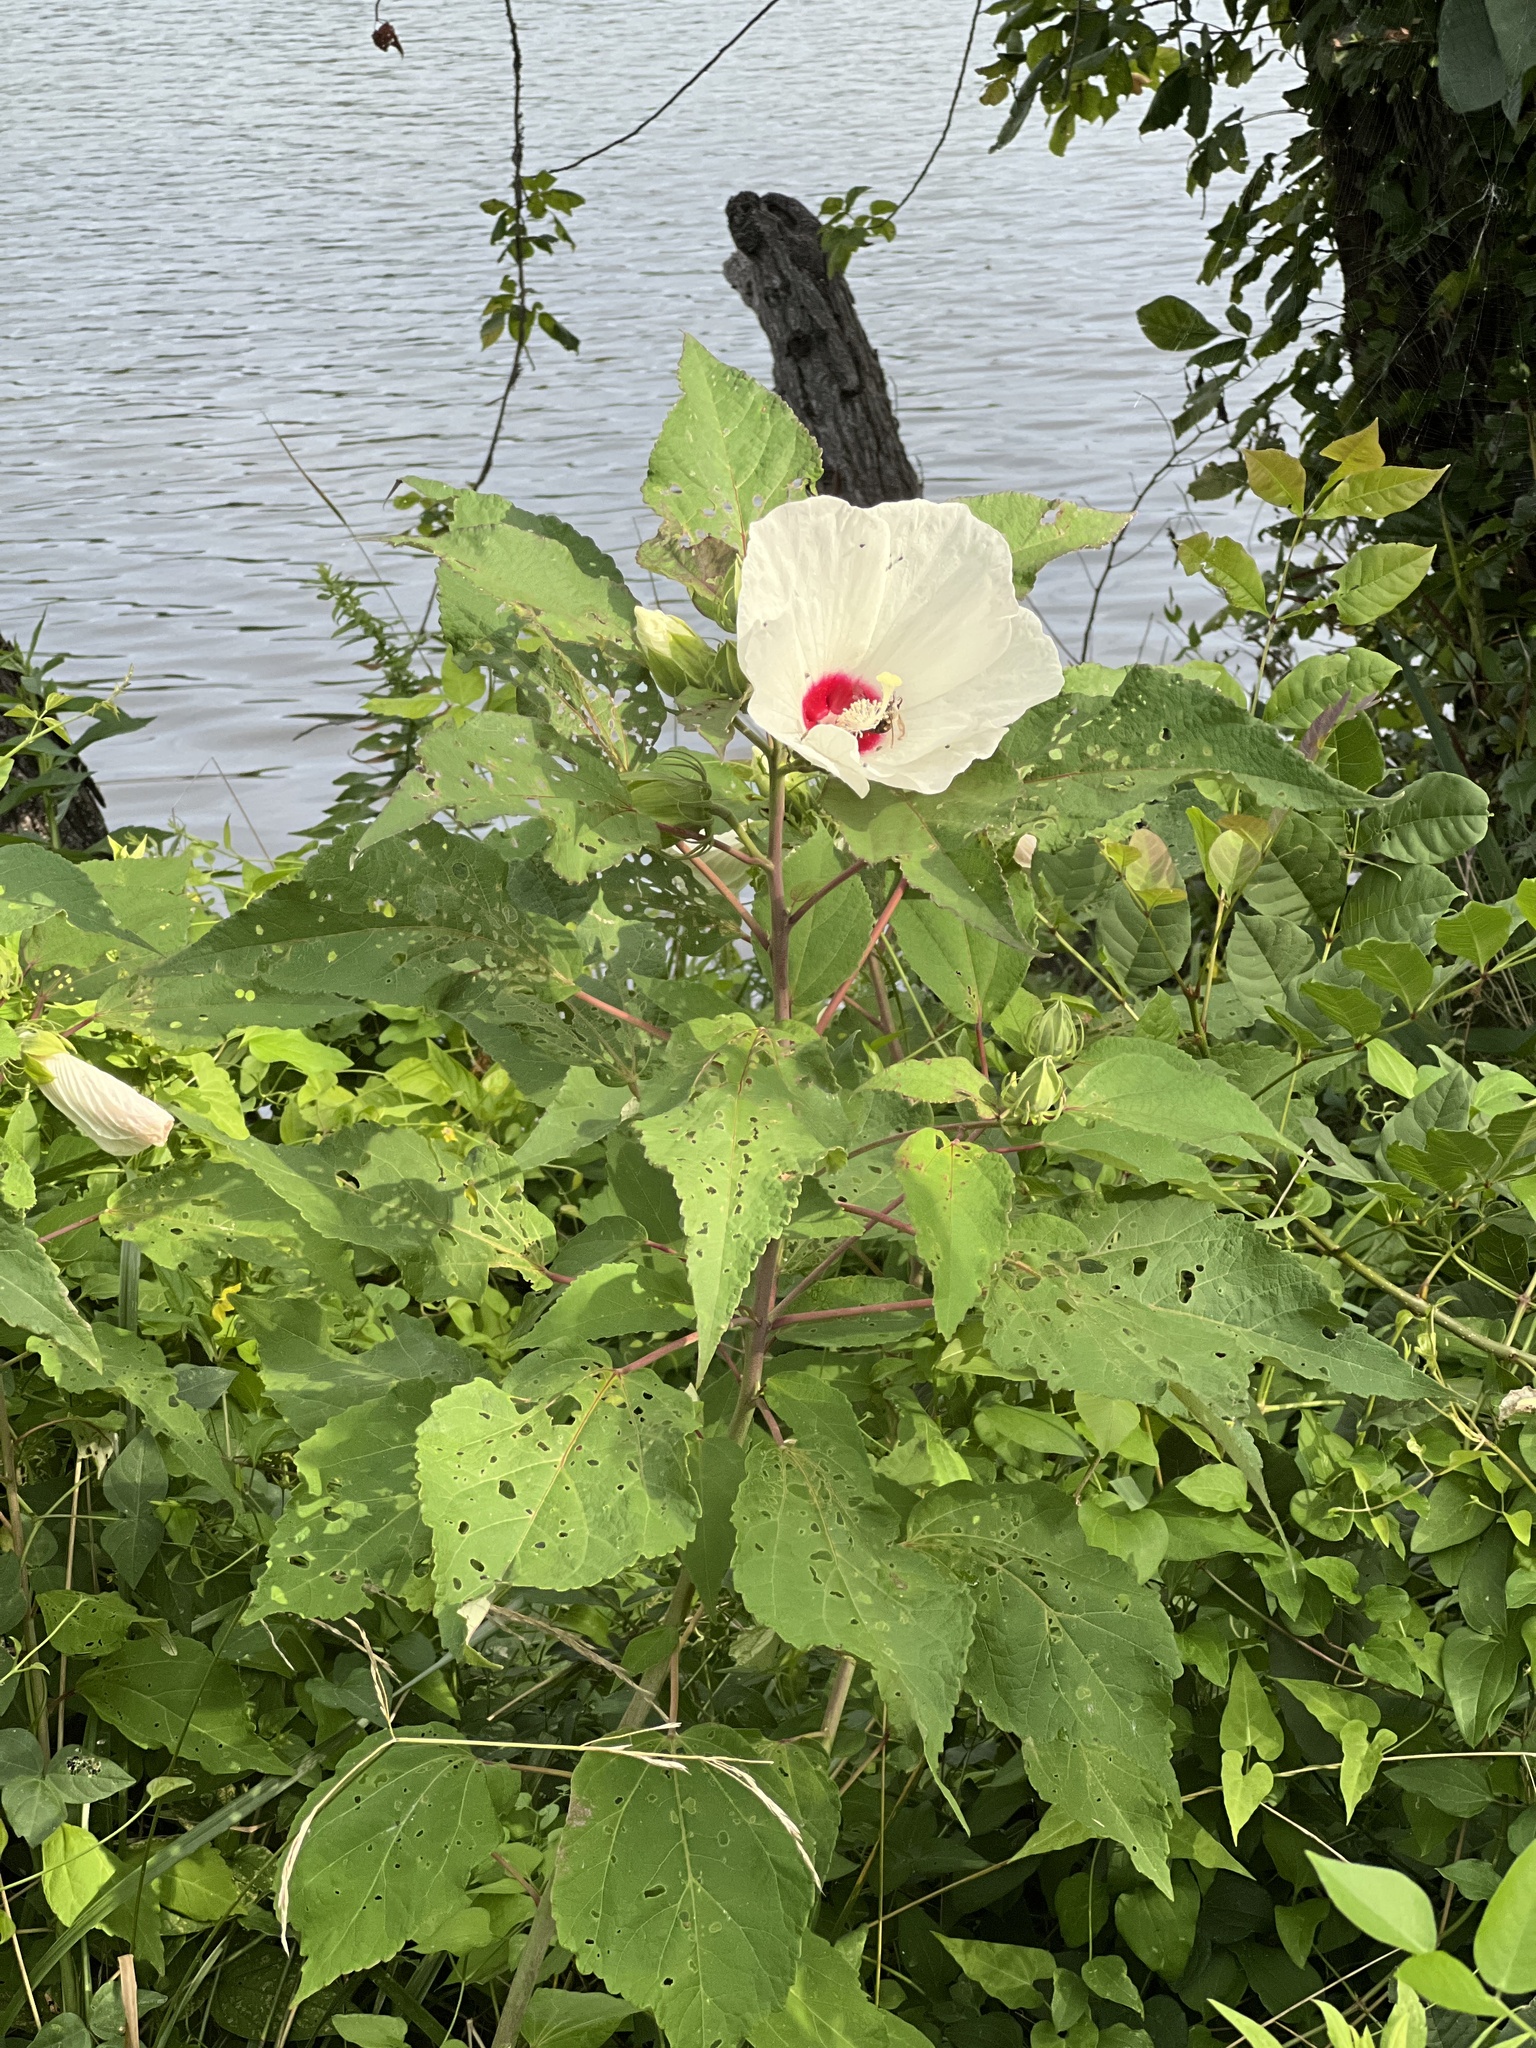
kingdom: Plantae
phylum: Tracheophyta
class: Magnoliopsida
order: Malvales
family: Malvaceae
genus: Hibiscus
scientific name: Hibiscus moscheutos
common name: Common rose-mallow
